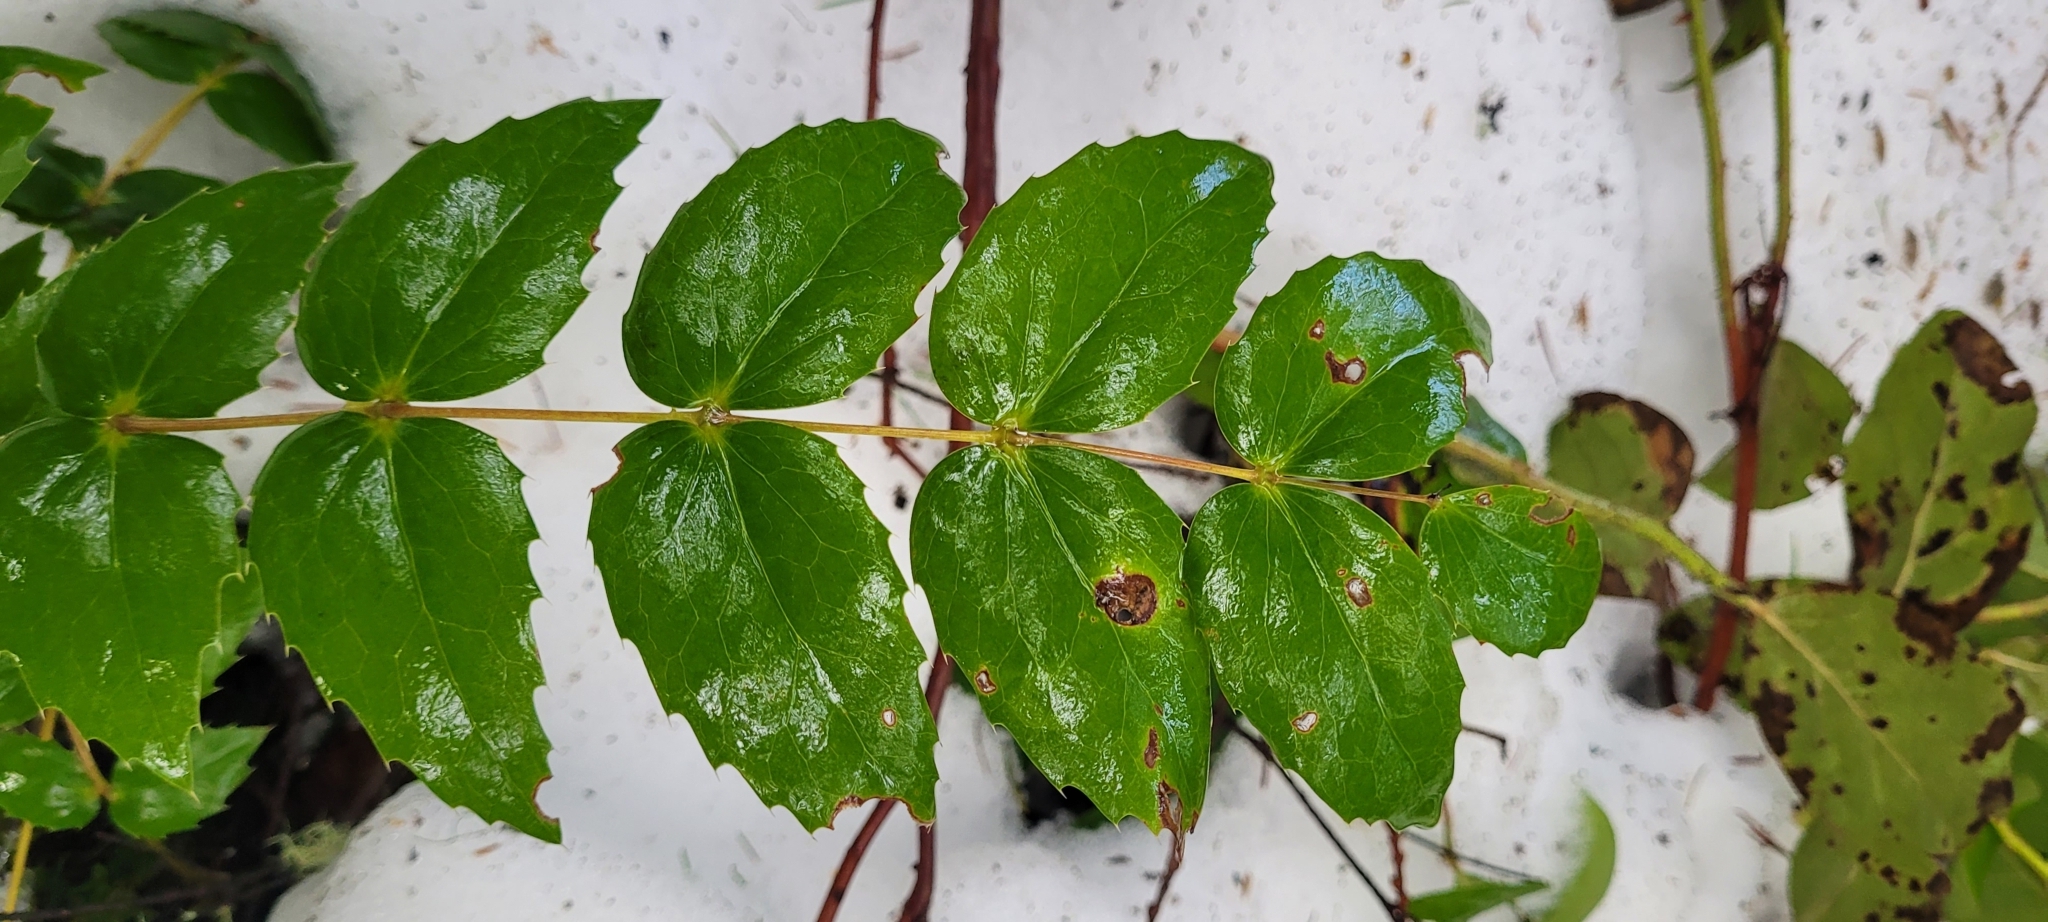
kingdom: Plantae
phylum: Tracheophyta
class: Magnoliopsida
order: Ranunculales
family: Berberidaceae
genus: Mahonia
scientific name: Mahonia nervosa
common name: Cascade oregon-grape
